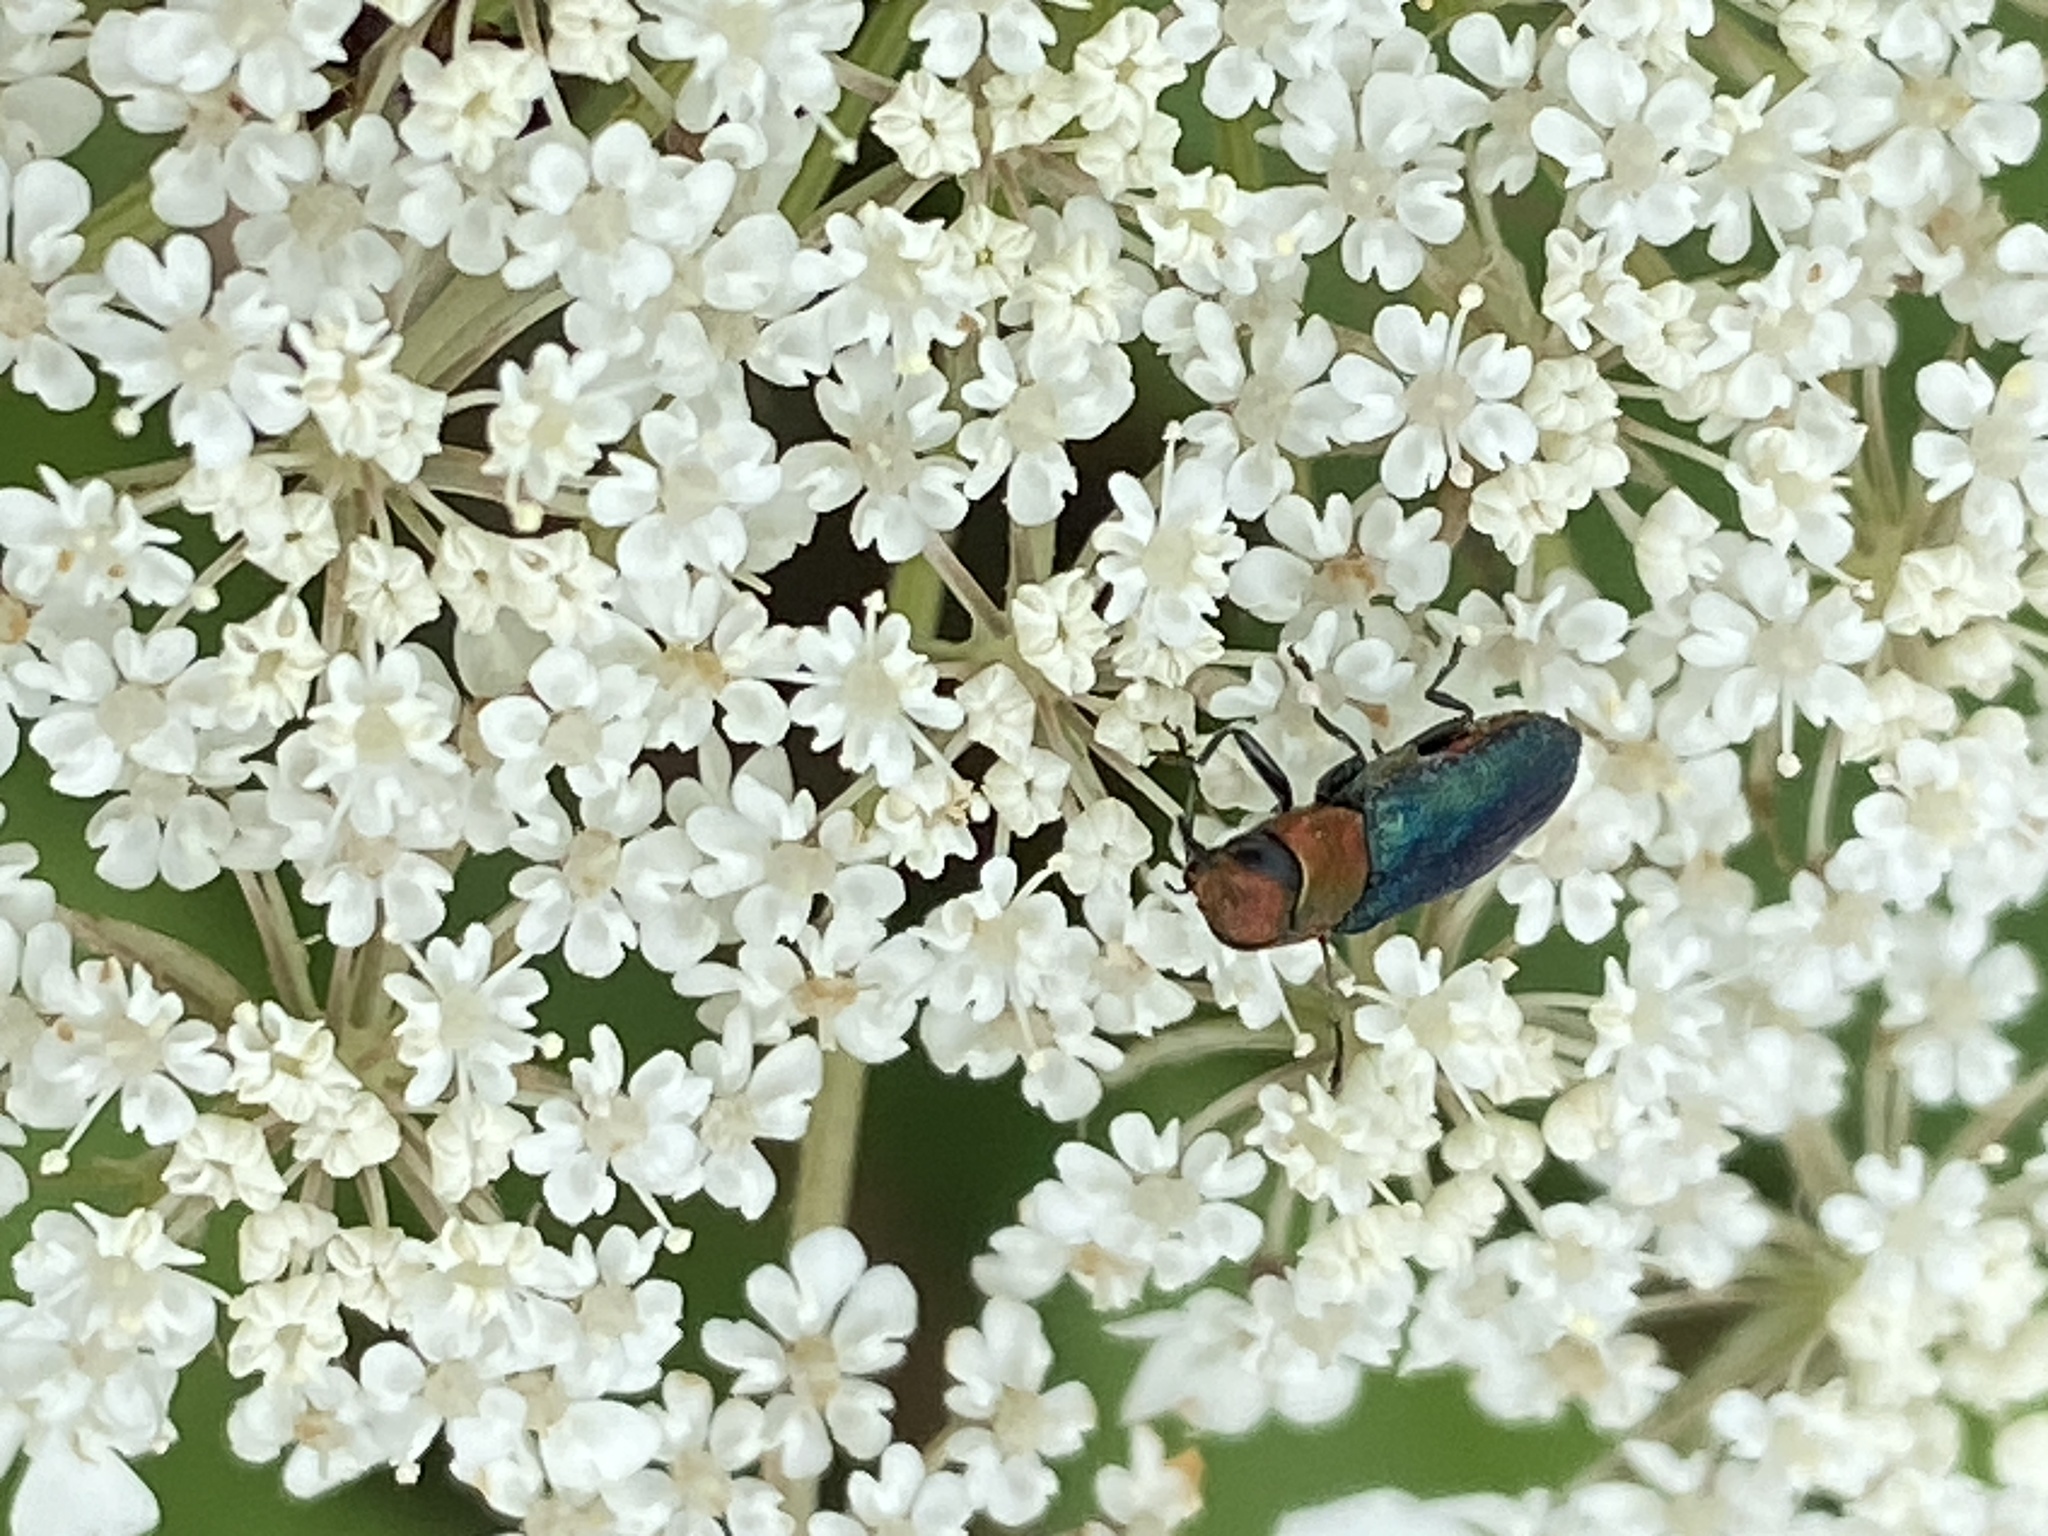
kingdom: Animalia
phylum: Arthropoda
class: Insecta
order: Coleoptera
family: Buprestidae
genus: Anthaxia
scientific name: Anthaxia nitidula
